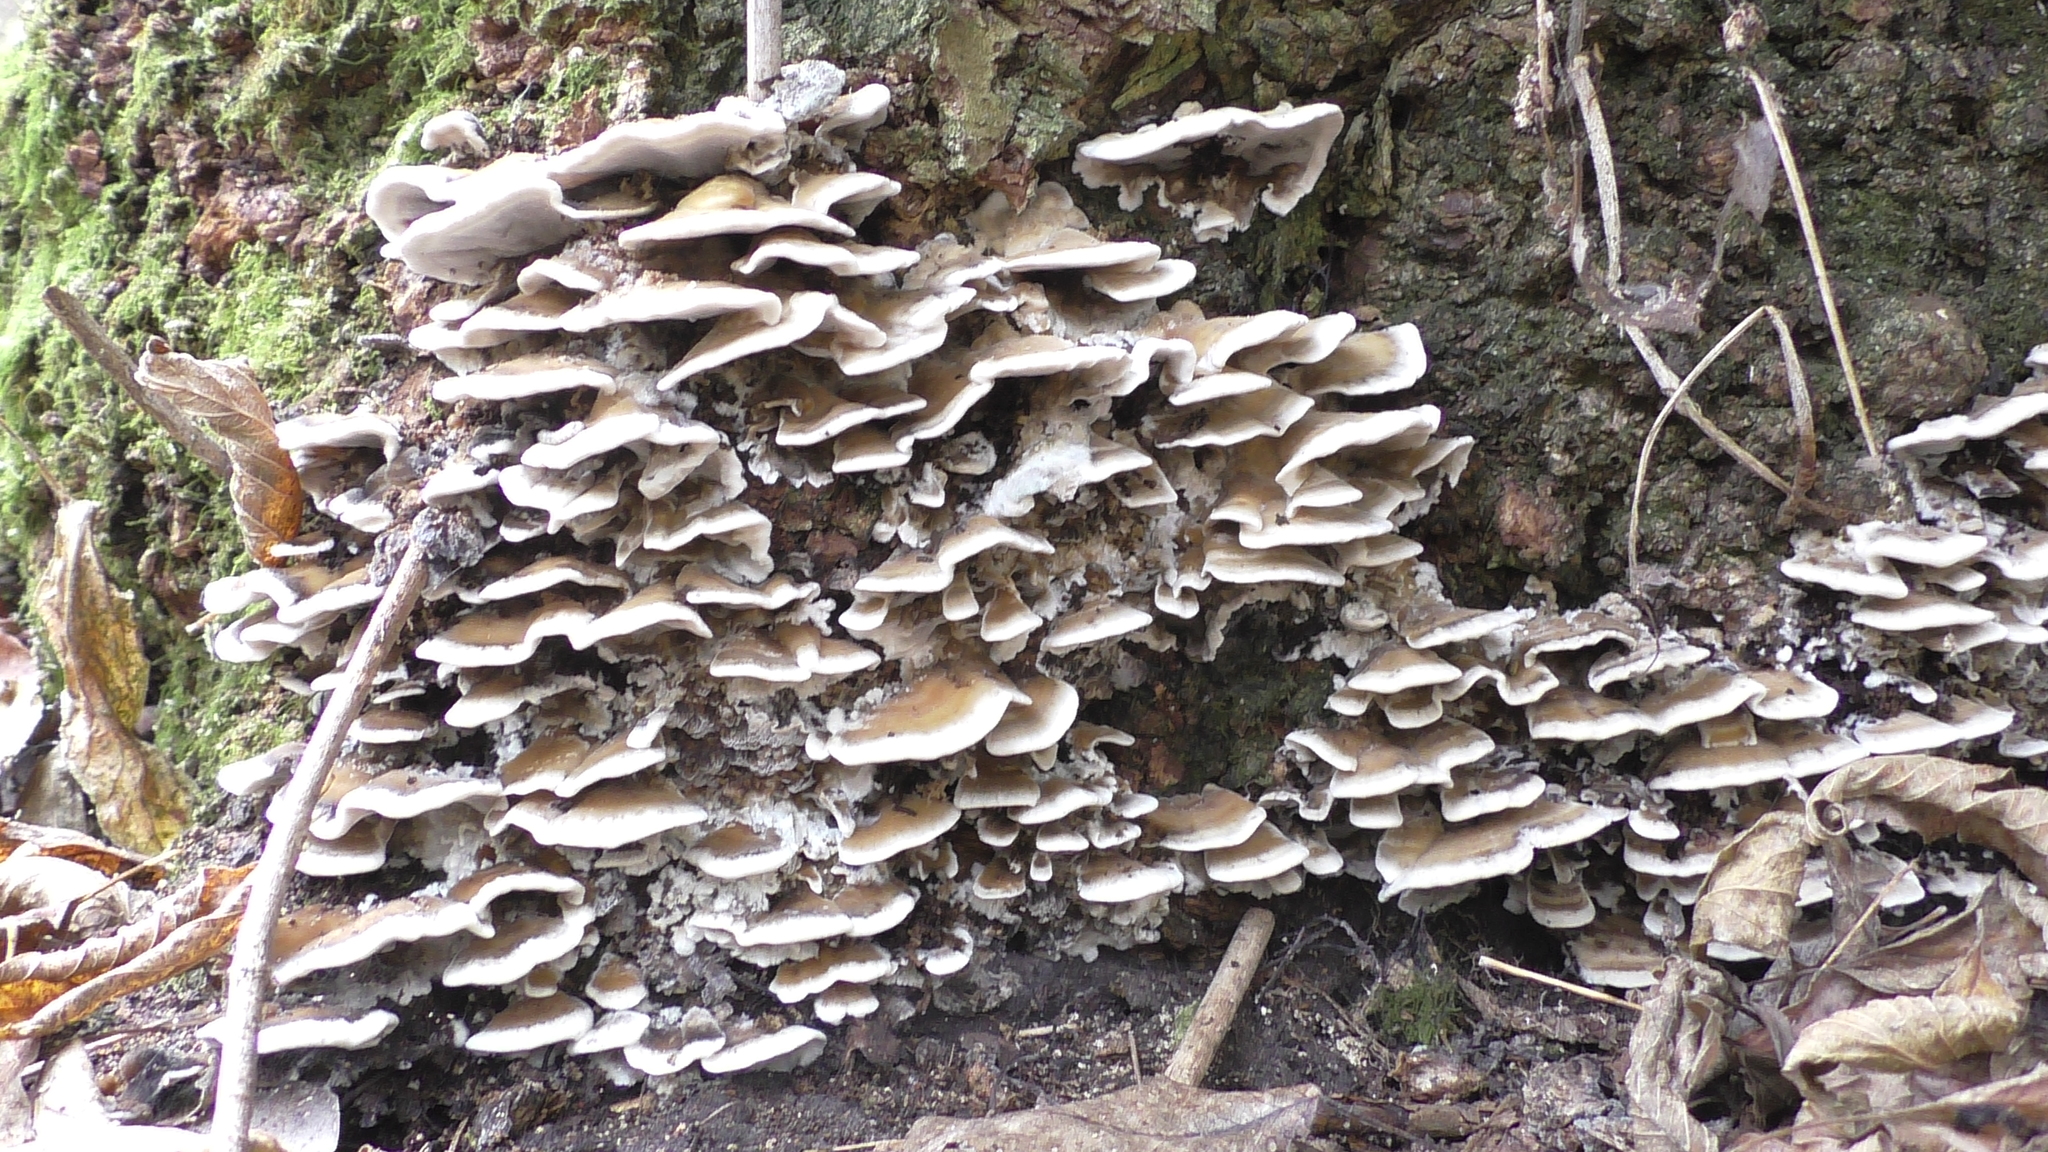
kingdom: Fungi
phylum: Basidiomycota
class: Agaricomycetes
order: Polyporales
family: Phanerochaetaceae
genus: Bjerkandera
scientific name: Bjerkandera adusta
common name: Smoky bracket
